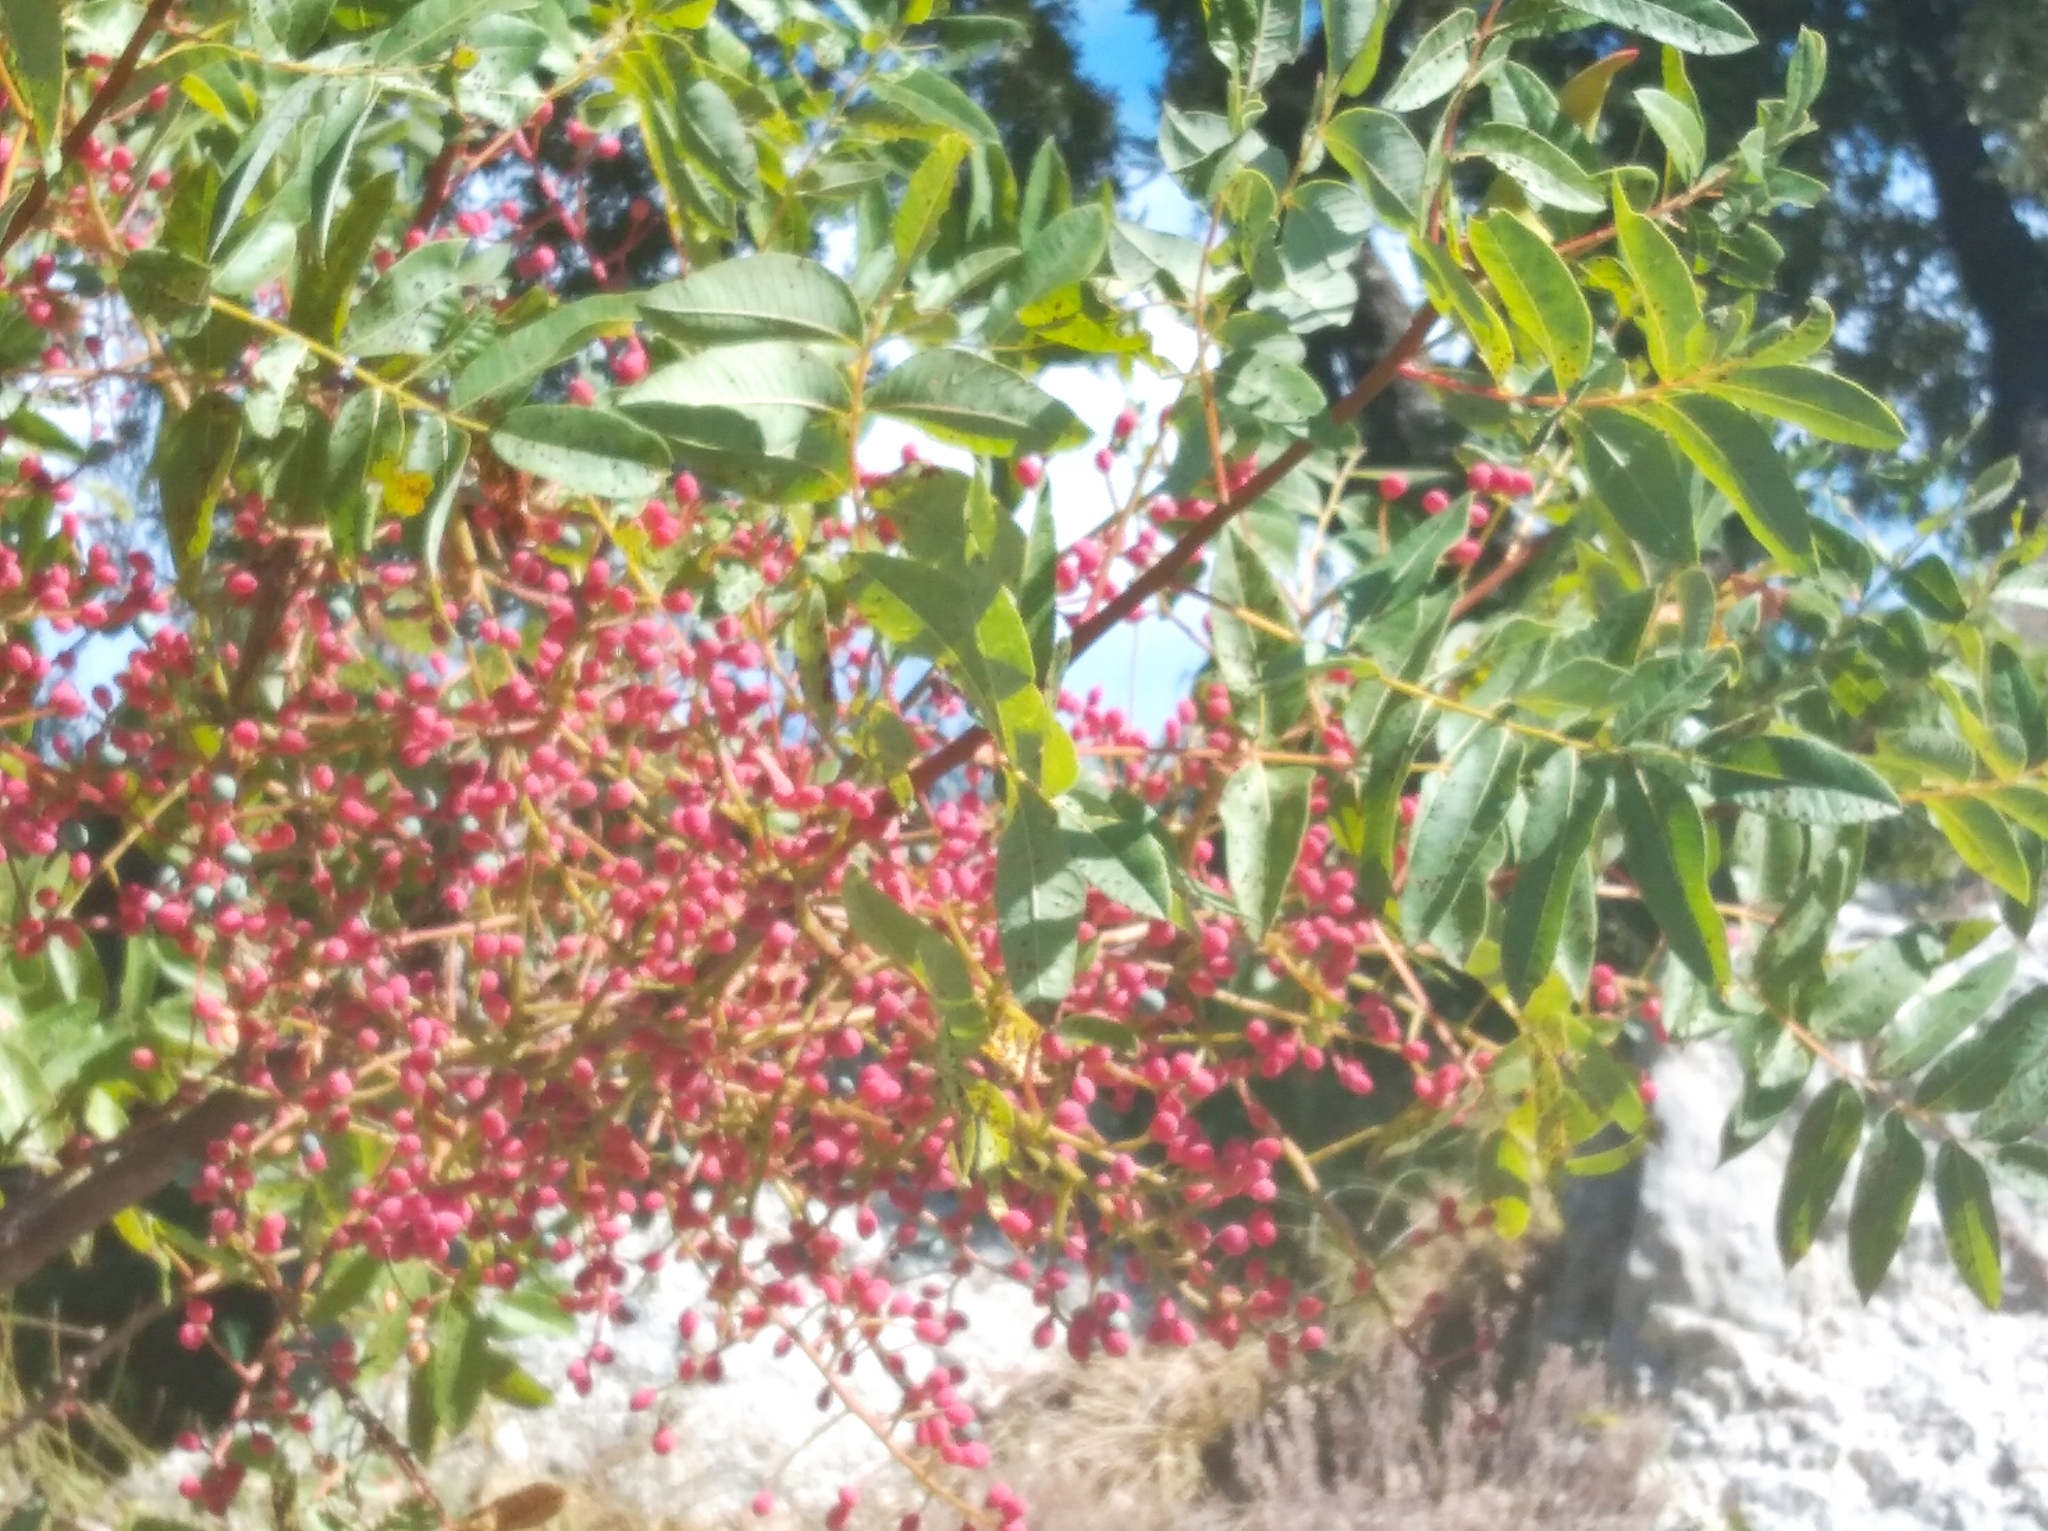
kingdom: Plantae
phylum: Tracheophyta
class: Magnoliopsida
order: Sapindales
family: Anacardiaceae
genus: Pistacia
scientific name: Pistacia terebinthus
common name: Terebinth
